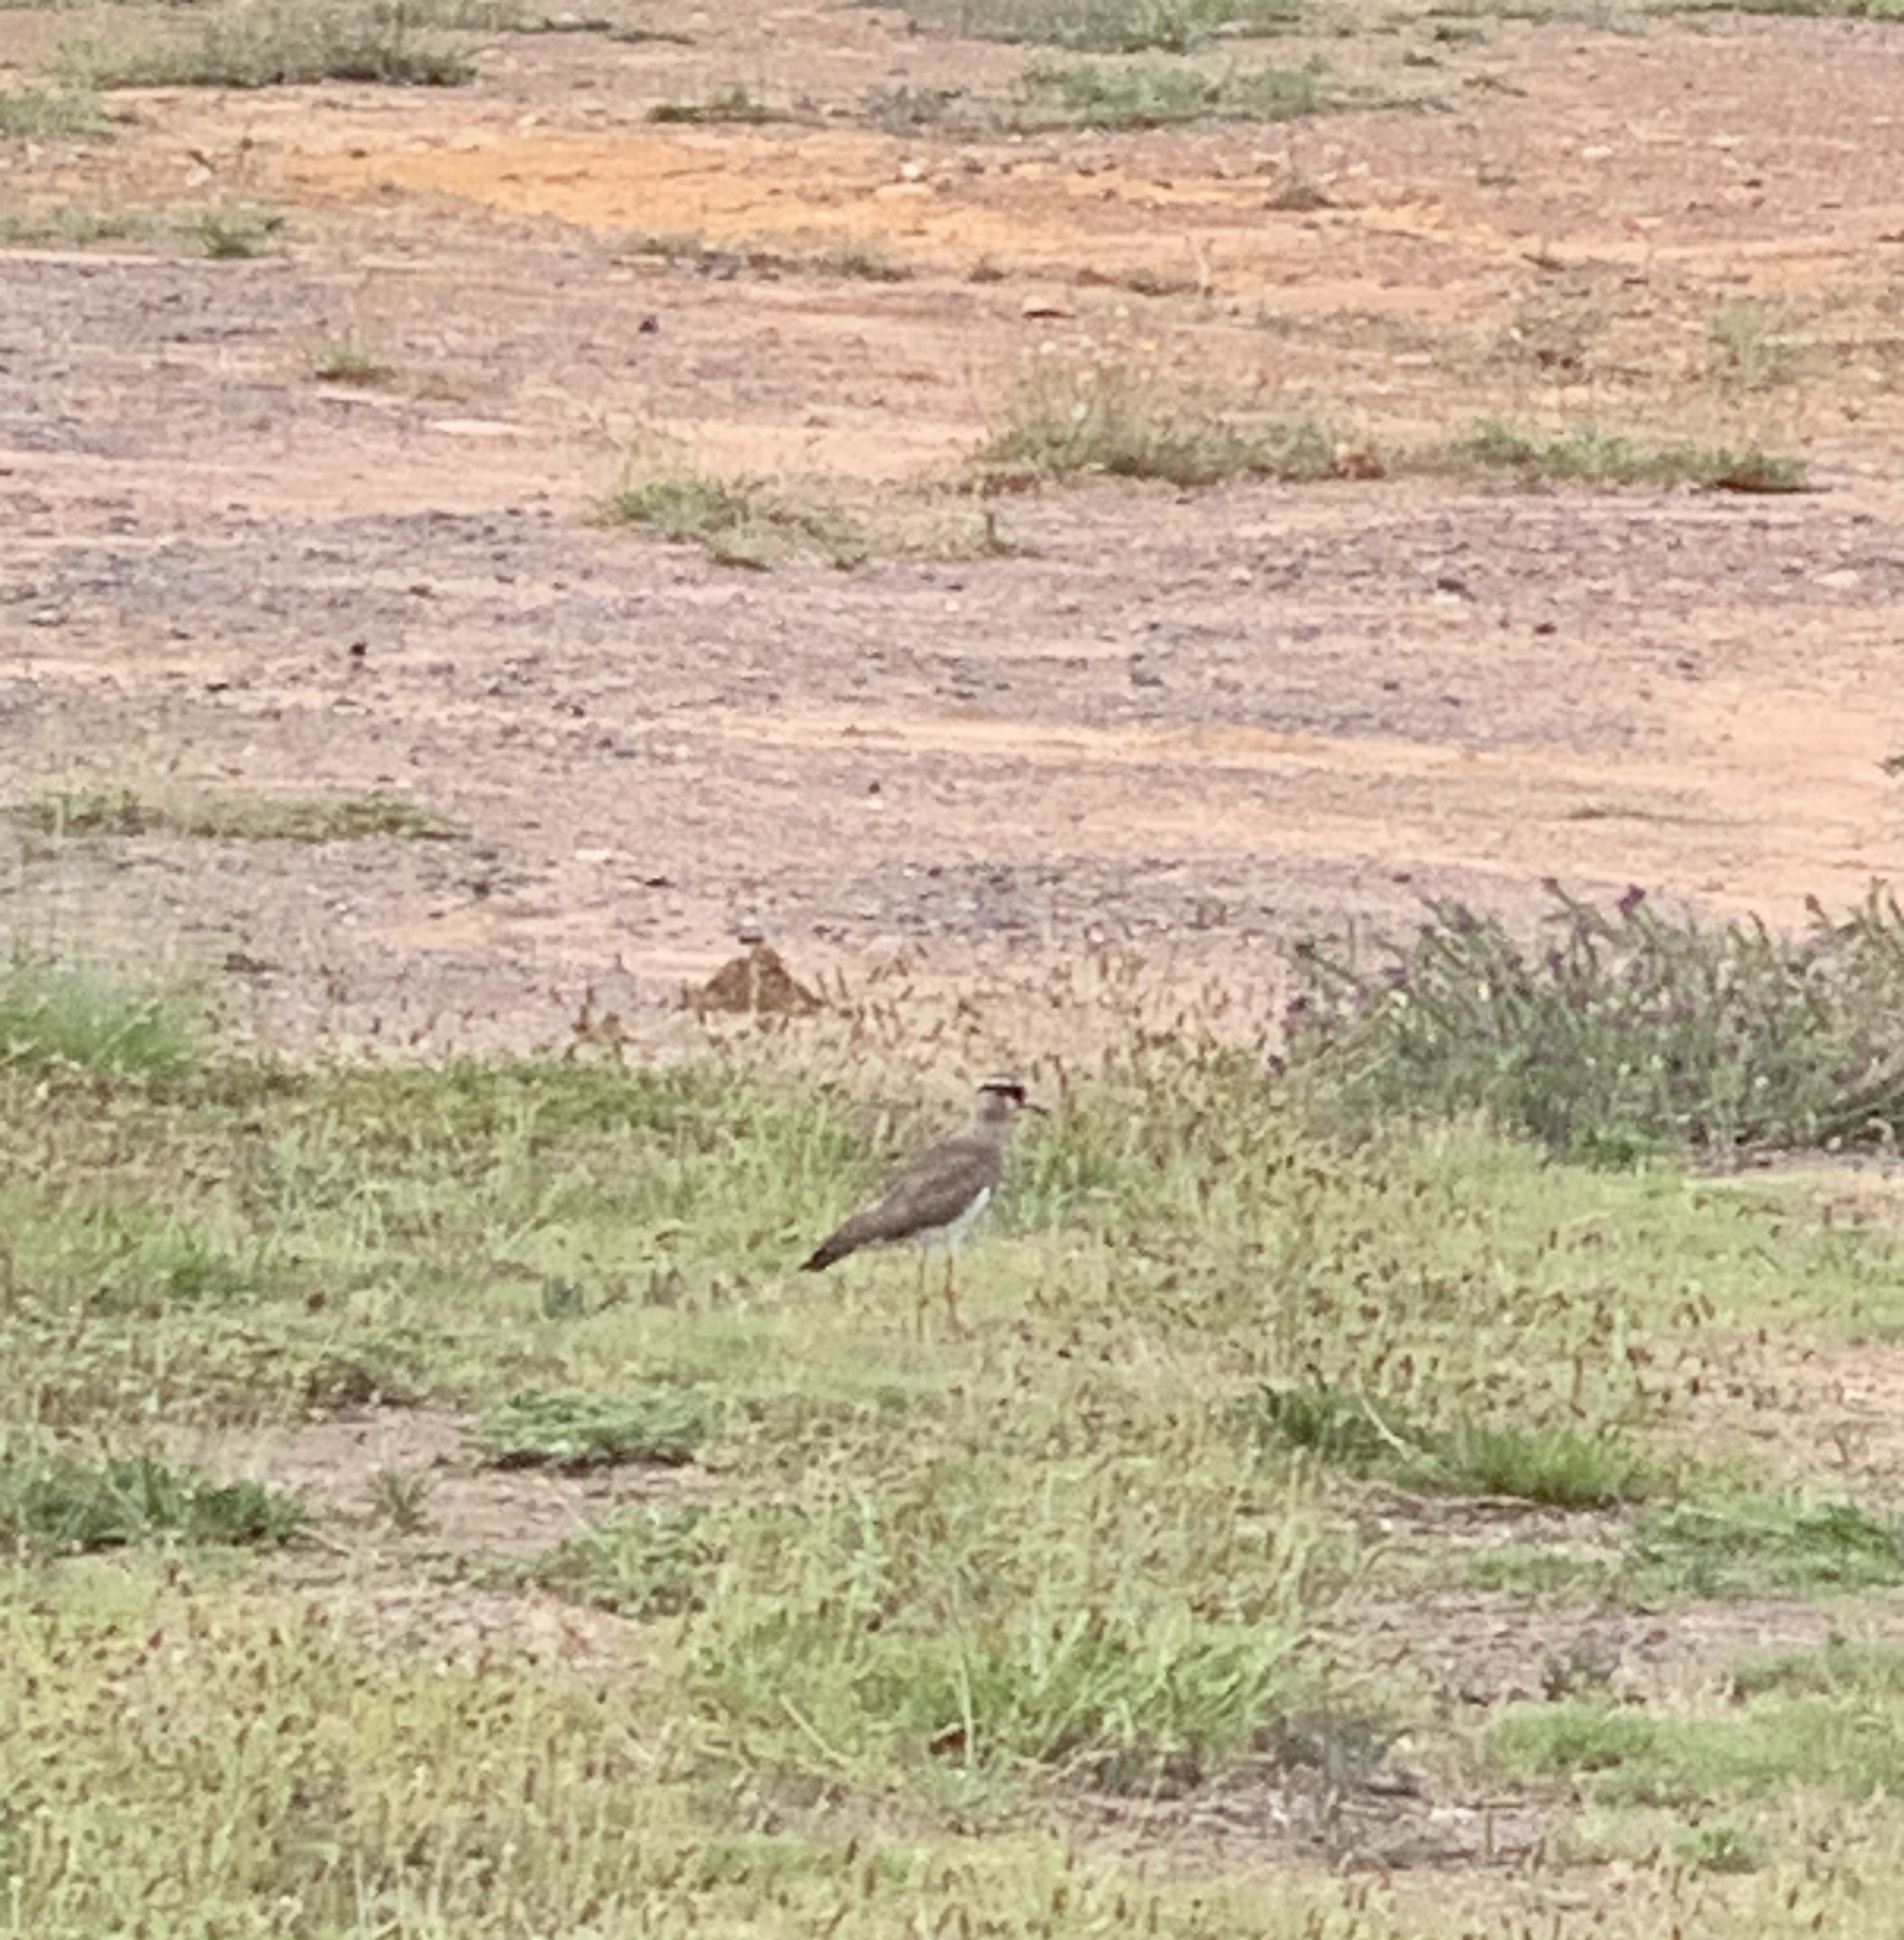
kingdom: Animalia
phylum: Chordata
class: Aves
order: Charadriiformes
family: Charadriidae
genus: Vanellus
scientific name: Vanellus coronatus
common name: Crowned lapwing
